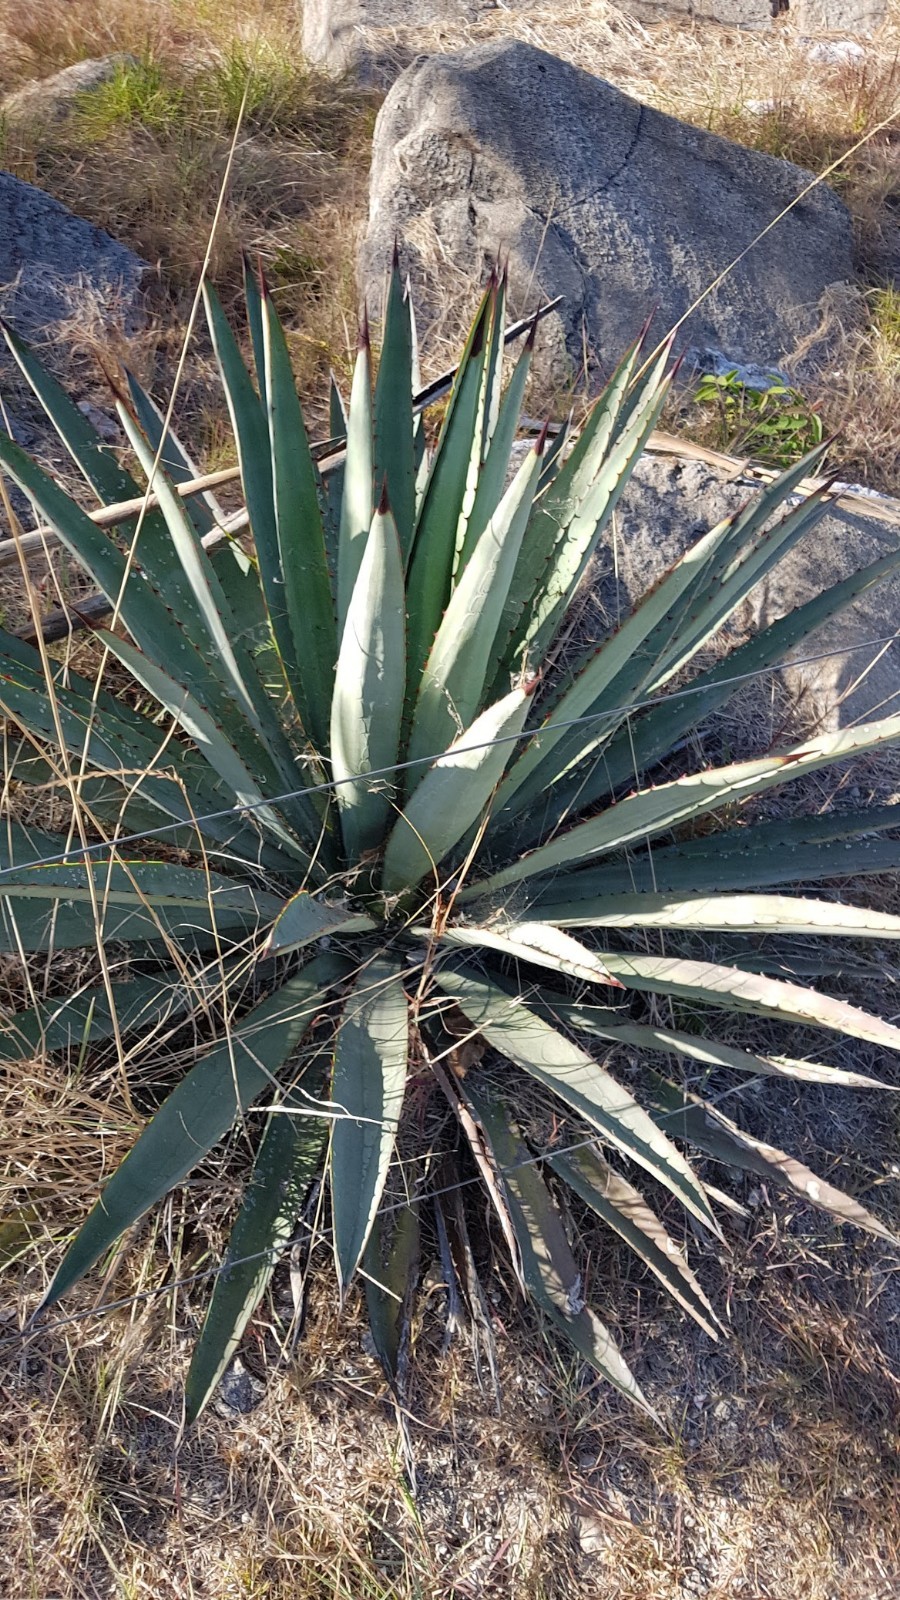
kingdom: Plantae
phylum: Tracheophyta
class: Liliopsida
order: Asparagales
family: Asparagaceae
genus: Agave
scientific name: Agave angustifolia
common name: Mescal agave
